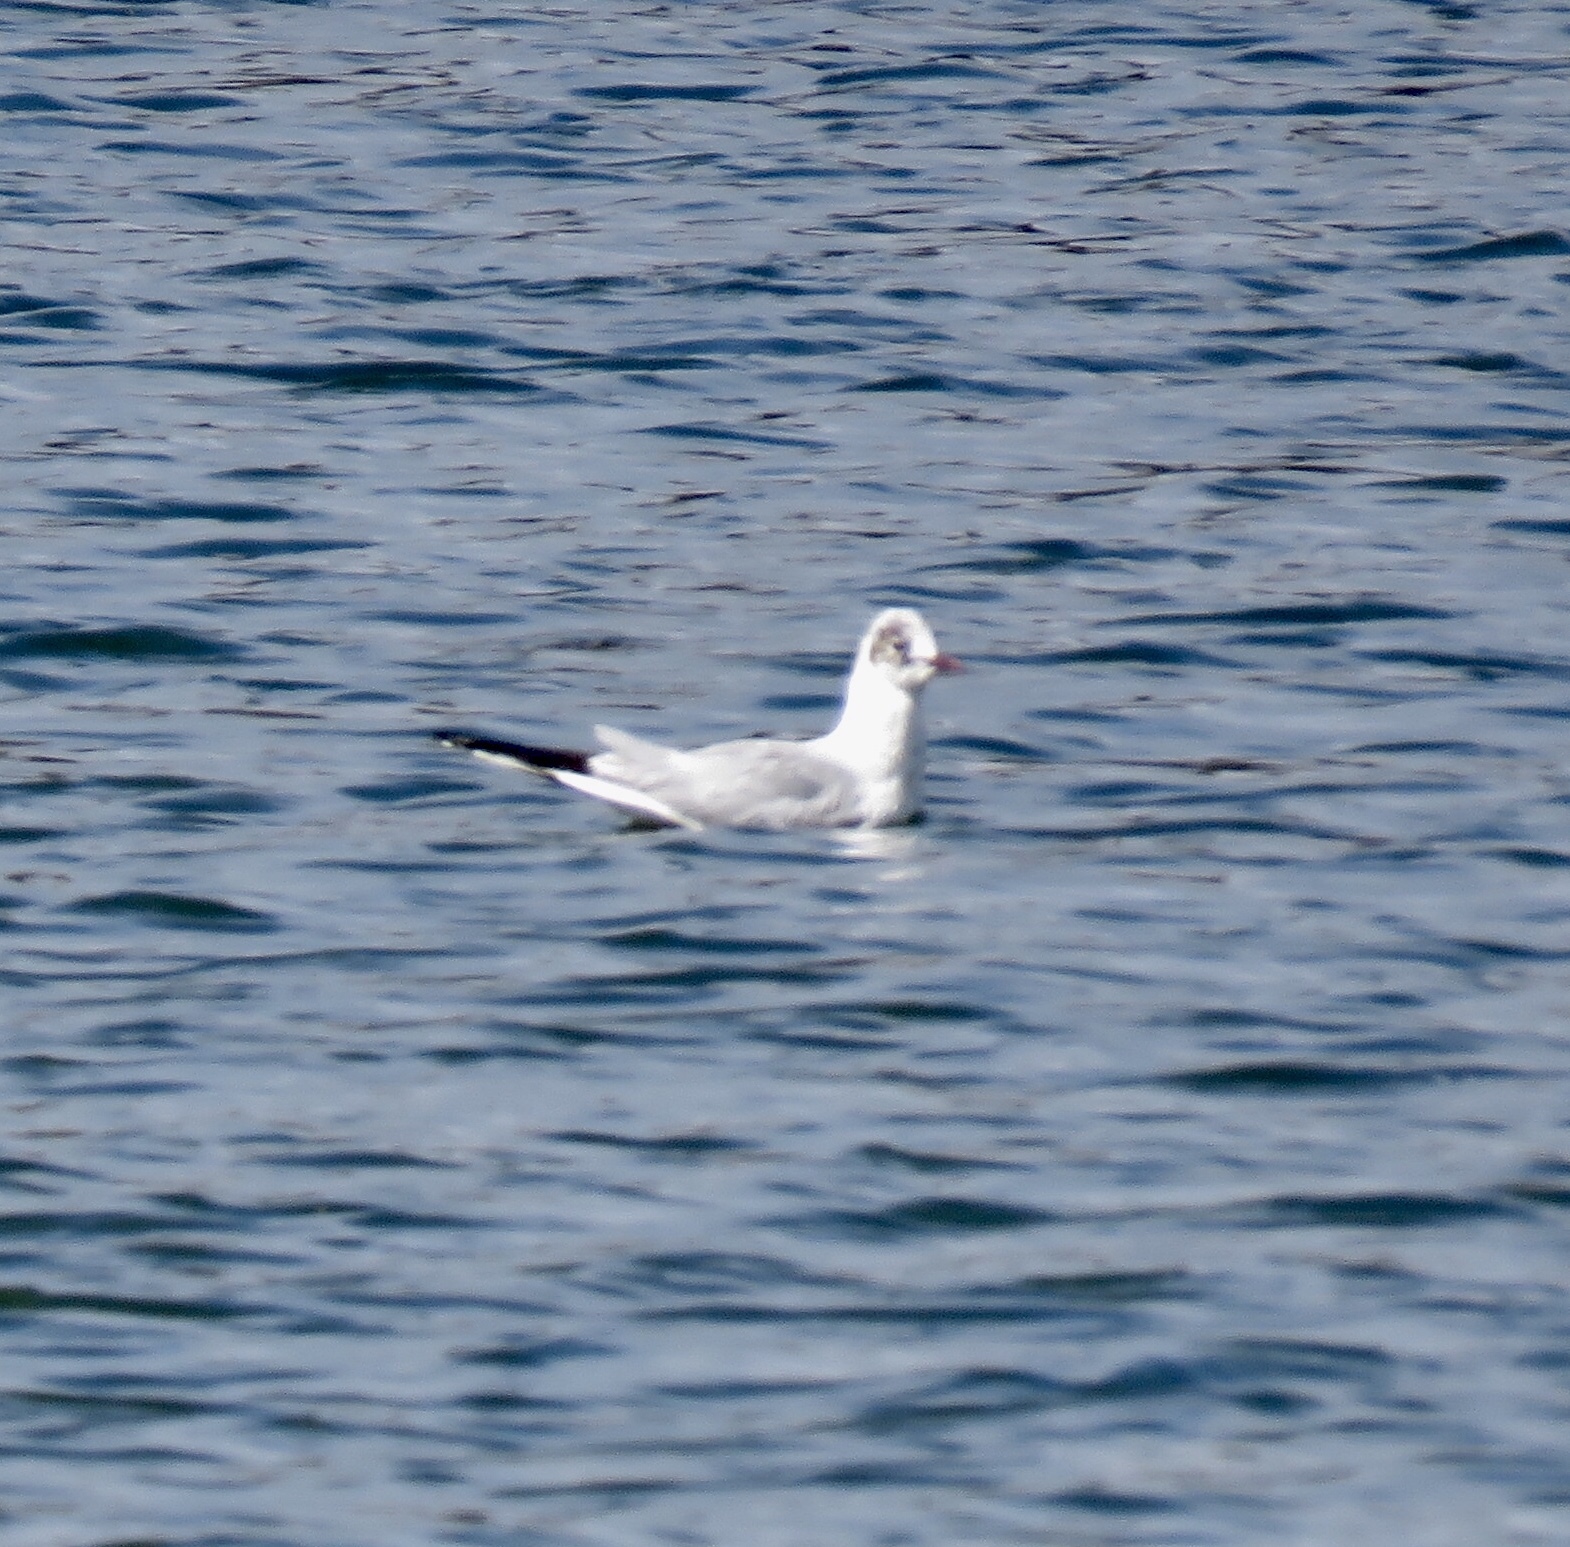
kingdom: Animalia
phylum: Chordata
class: Aves
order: Charadriiformes
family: Laridae
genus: Chroicocephalus
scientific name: Chroicocephalus ridibundus
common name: Black-headed gull
